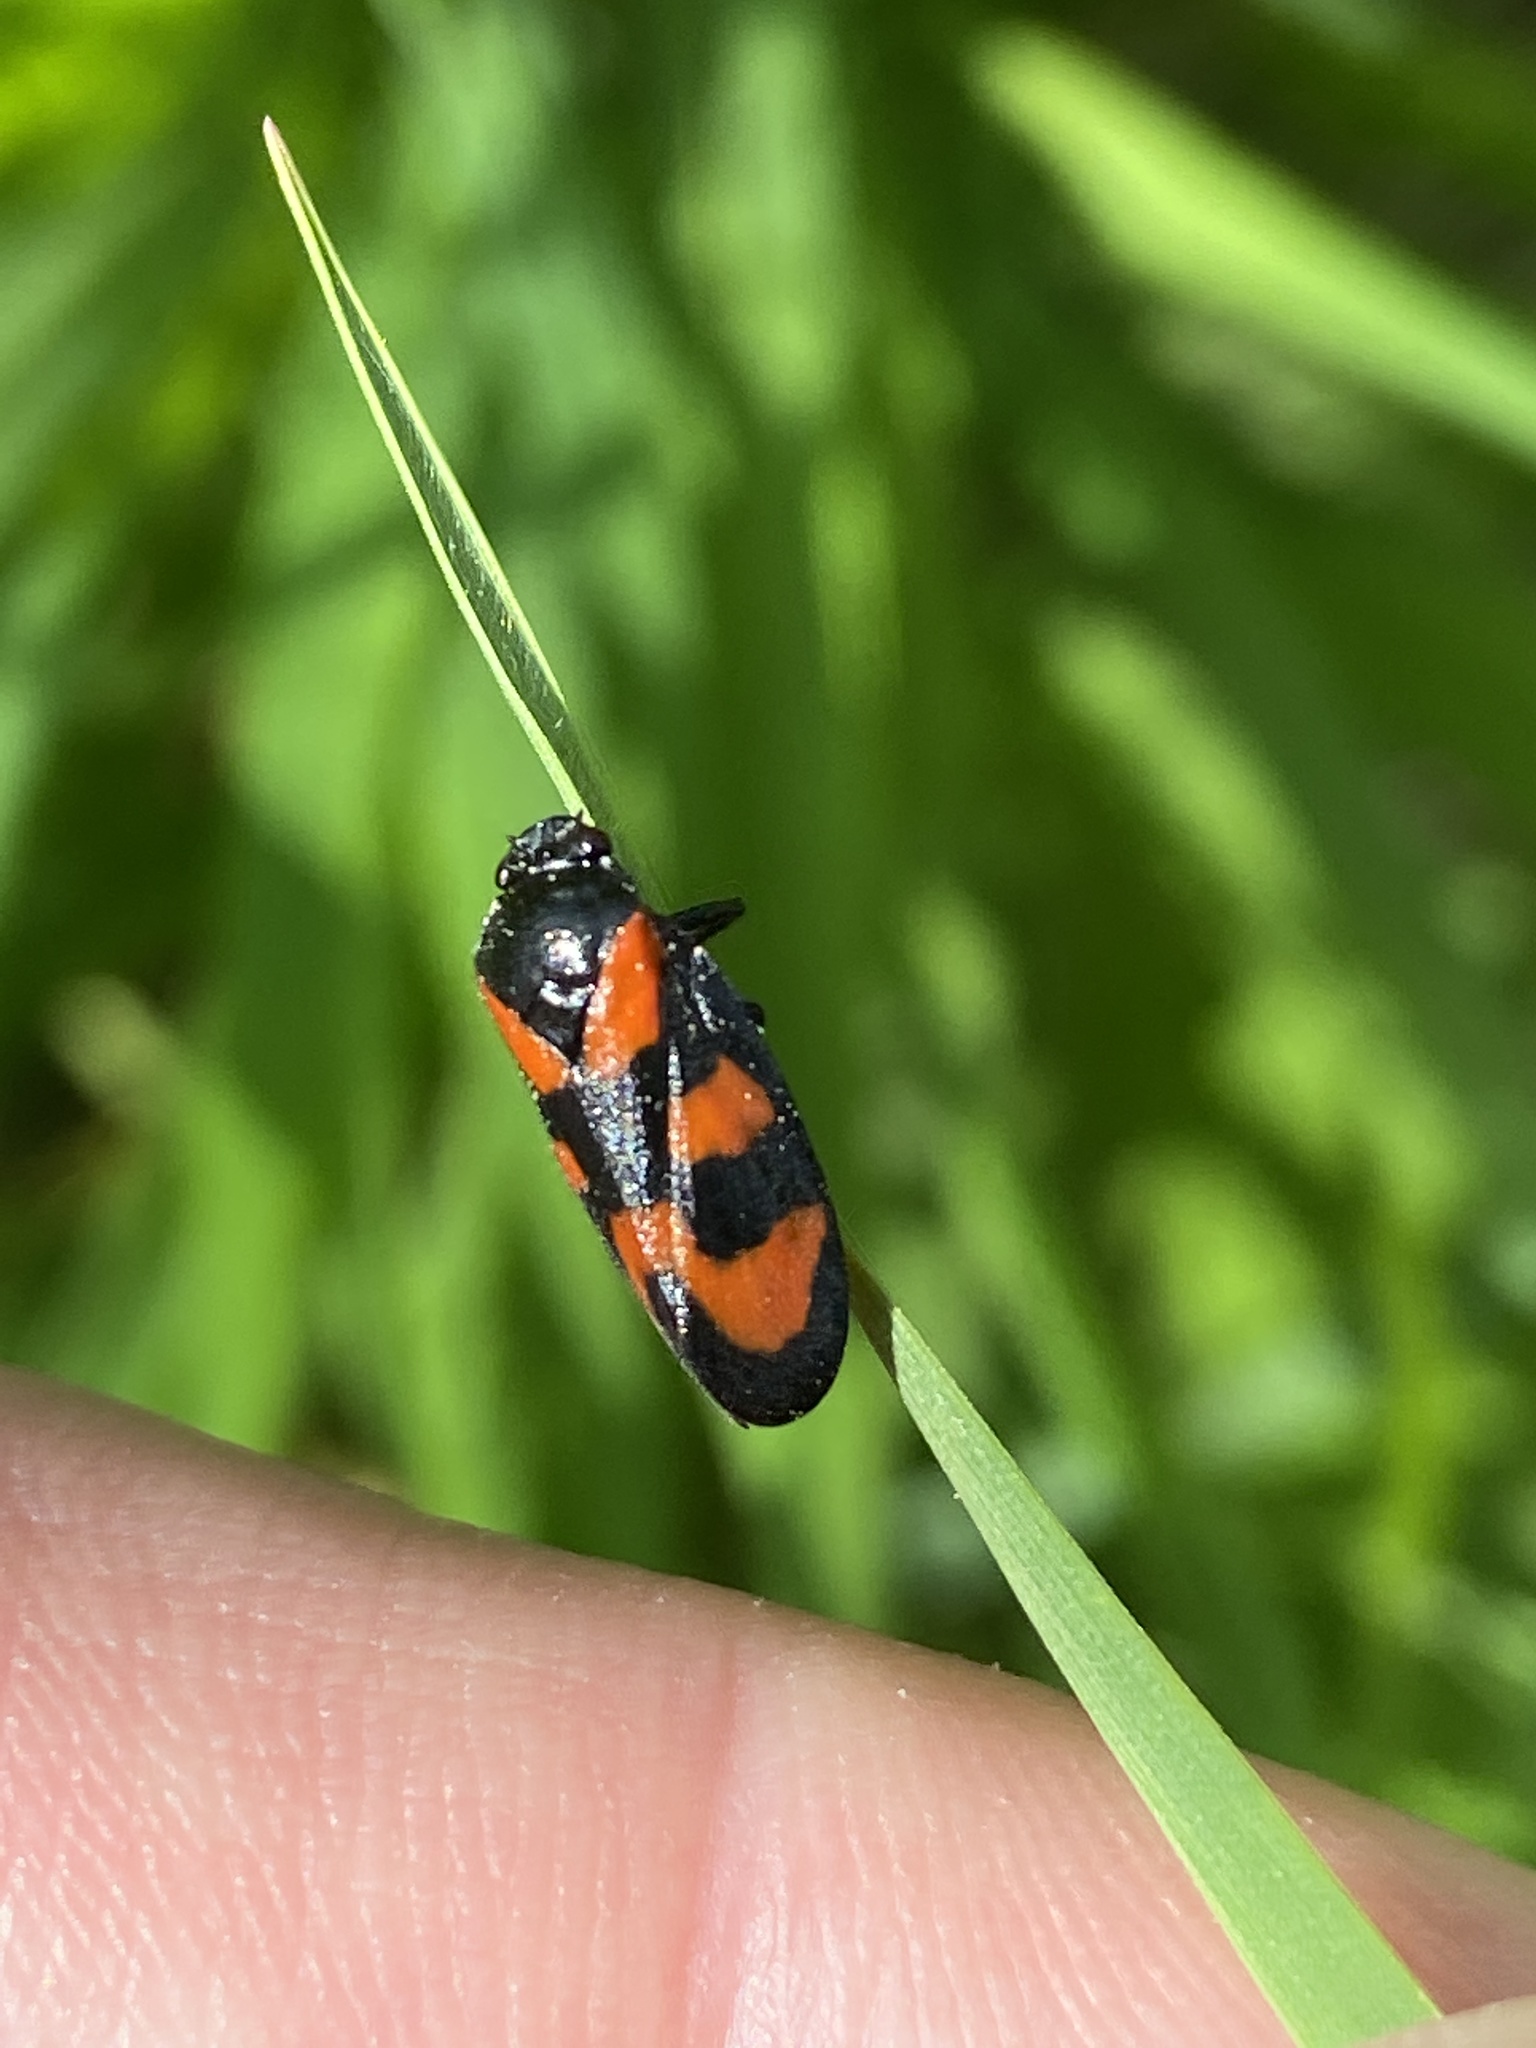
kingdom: Animalia
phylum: Arthropoda
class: Insecta
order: Hemiptera
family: Cercopidae
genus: Cercopis
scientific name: Cercopis vulnerata
